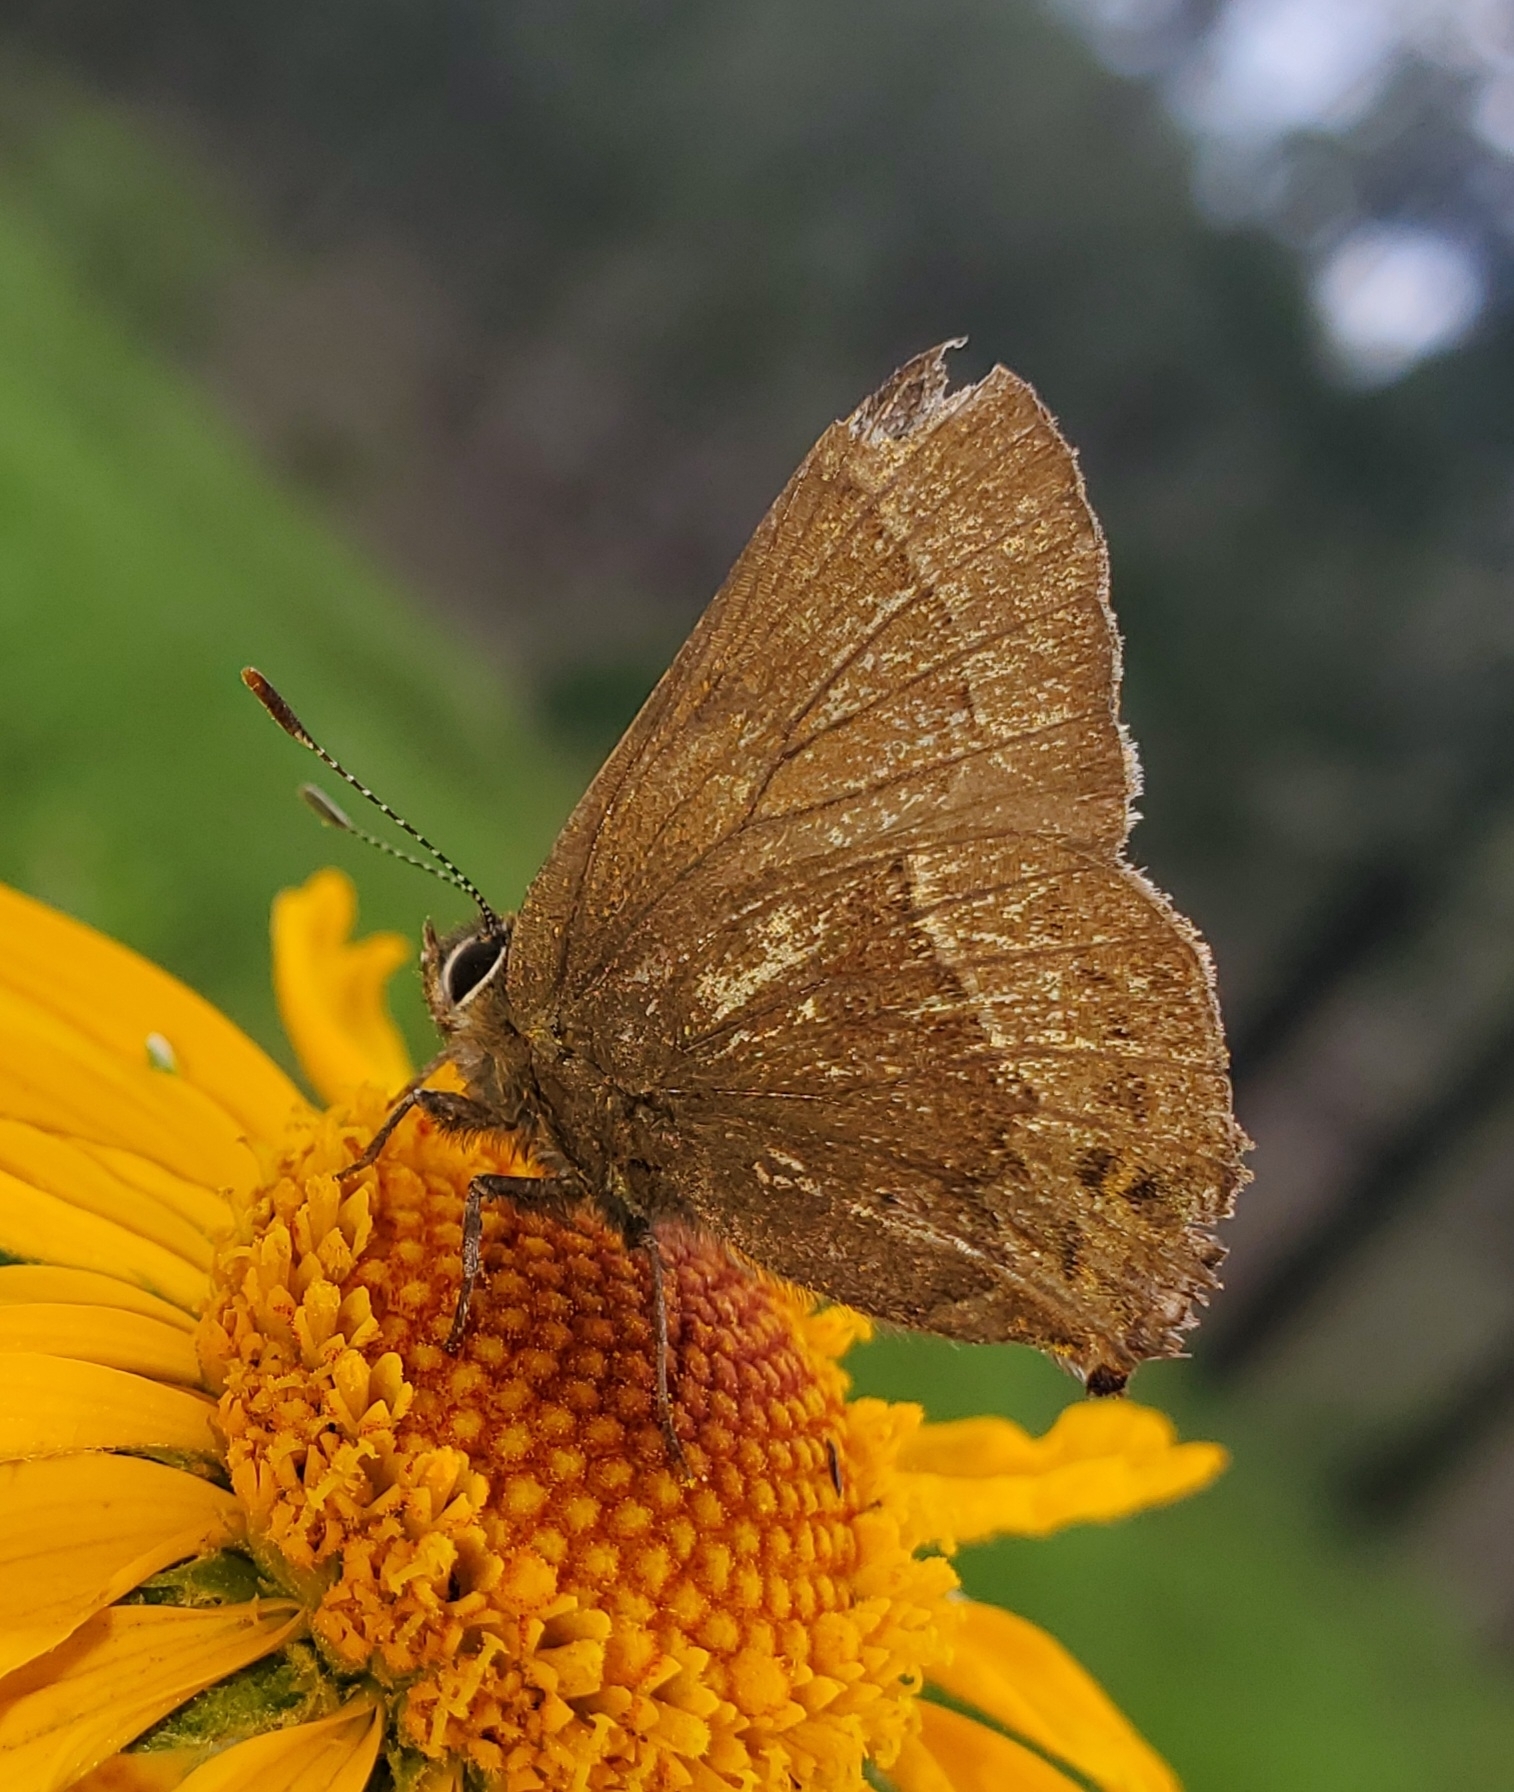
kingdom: Animalia
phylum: Arthropoda
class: Insecta
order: Lepidoptera
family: Lycaenidae
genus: Mitoura
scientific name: Mitoura spinetorum
